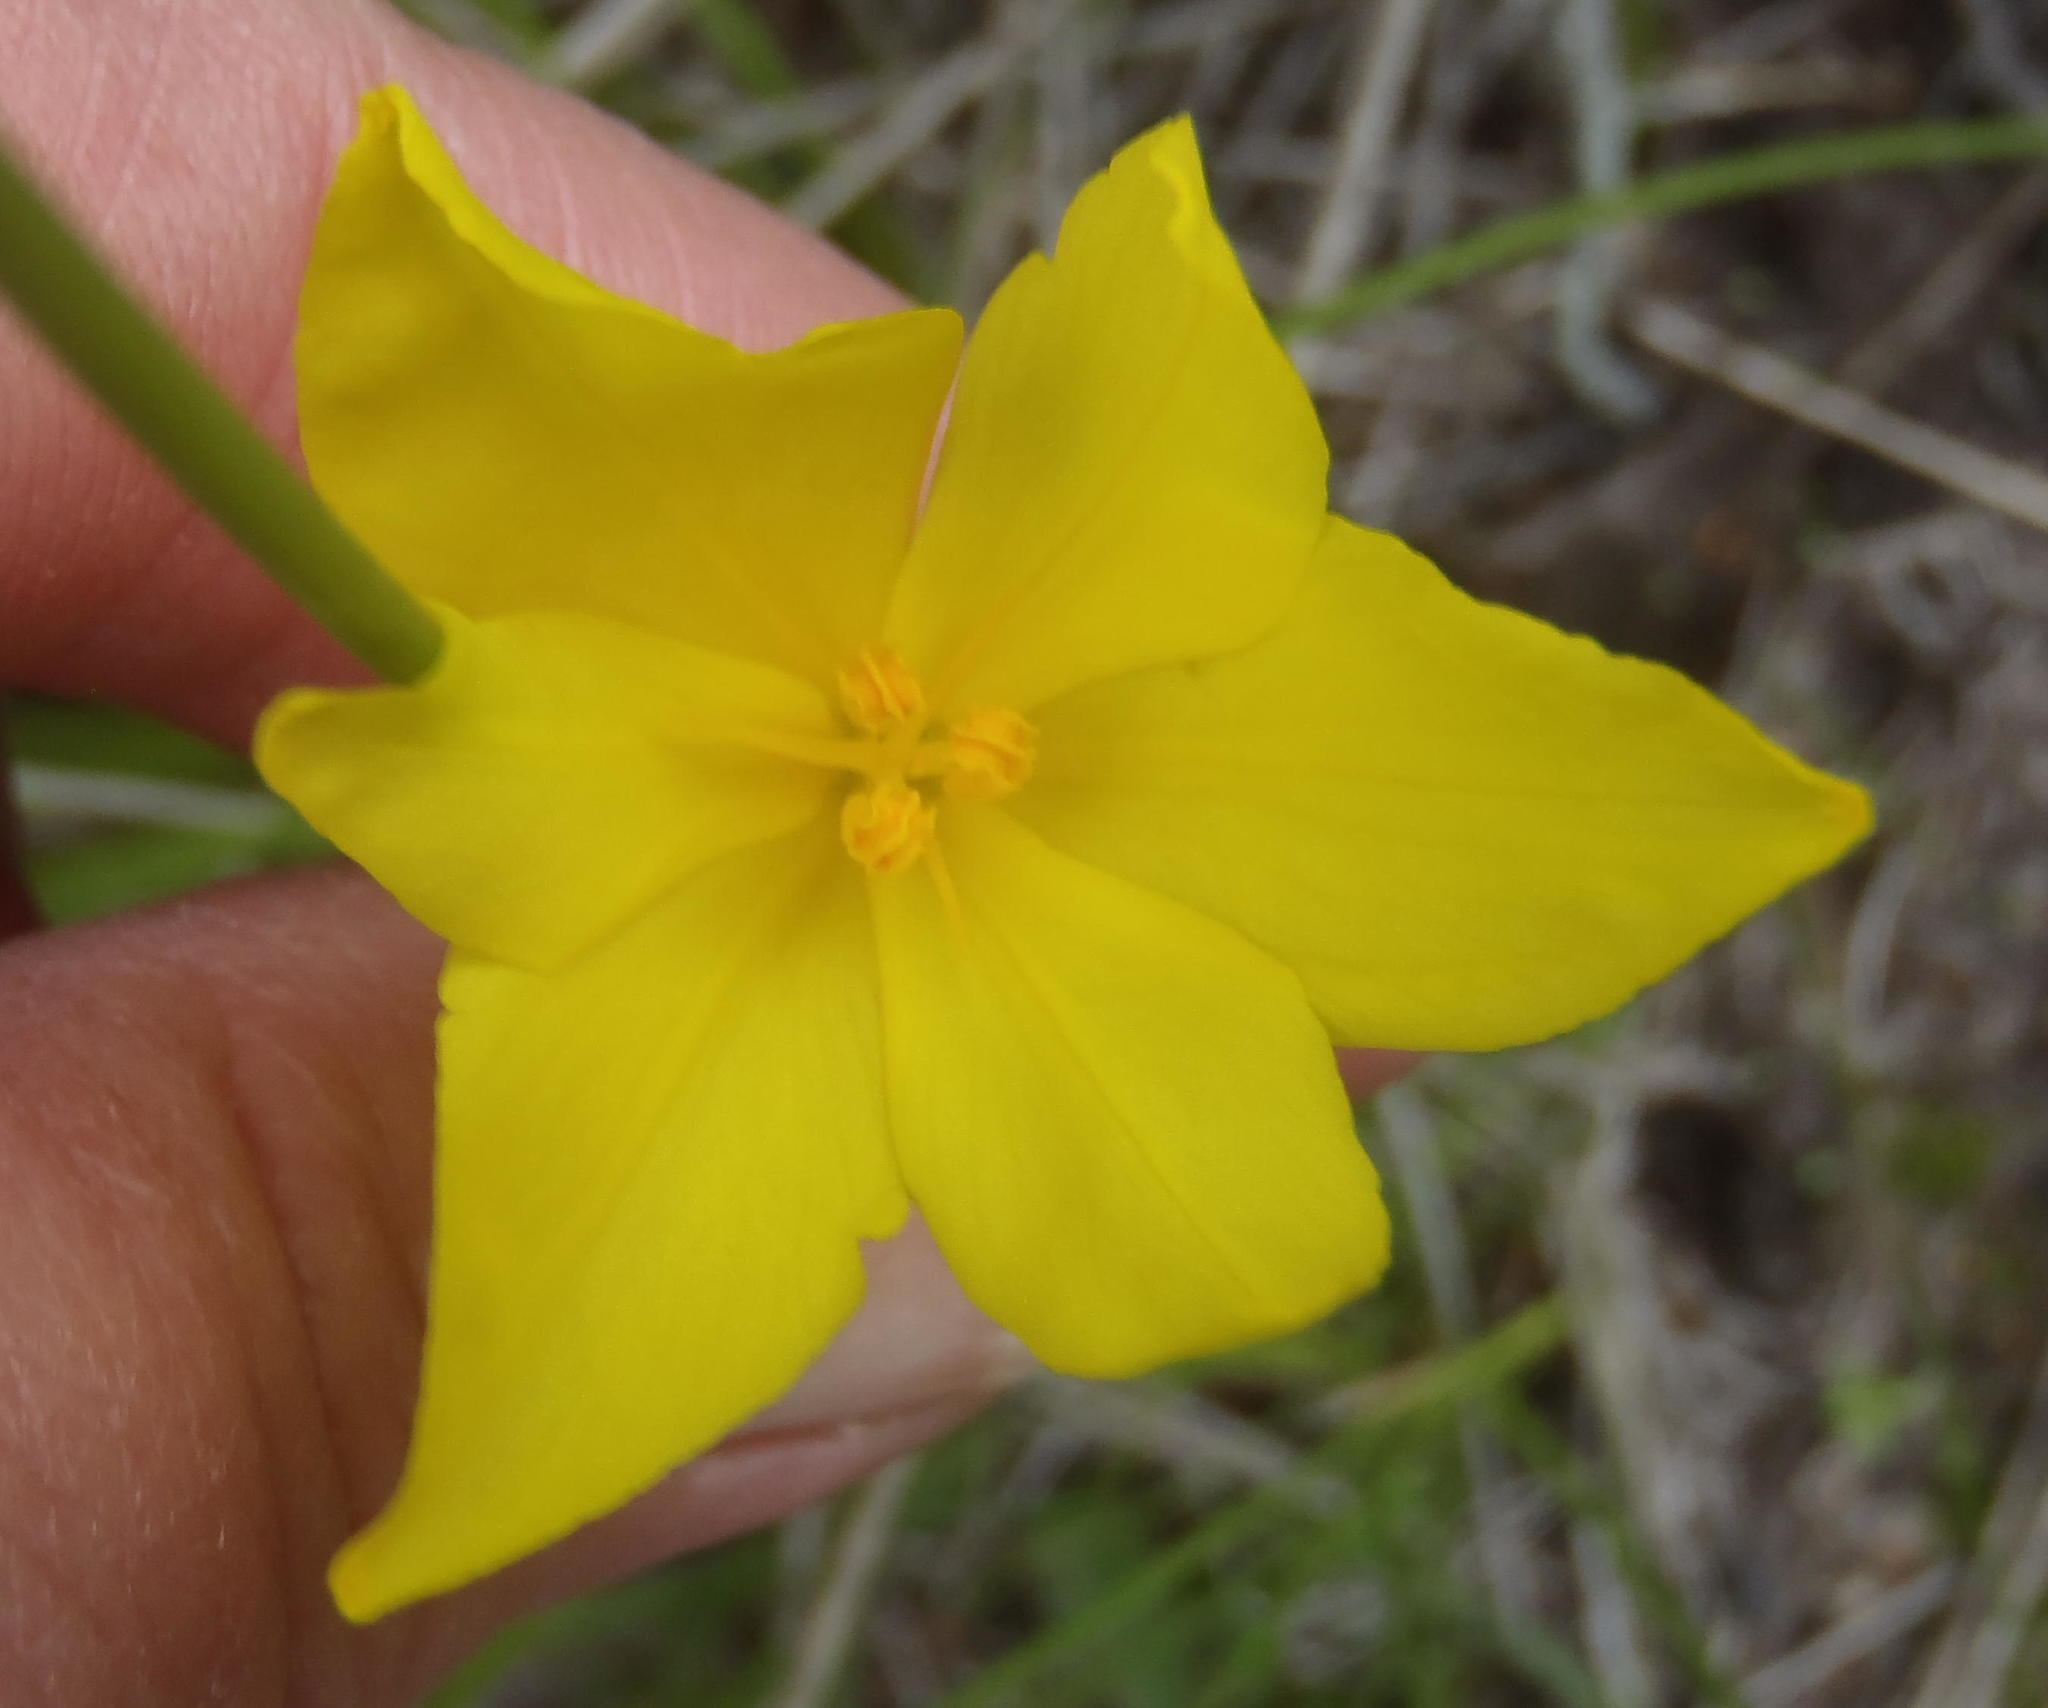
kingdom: Plantae
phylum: Tracheophyta
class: Liliopsida
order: Asparagales
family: Iridaceae
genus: Bobartia
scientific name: Bobartia aphylla
